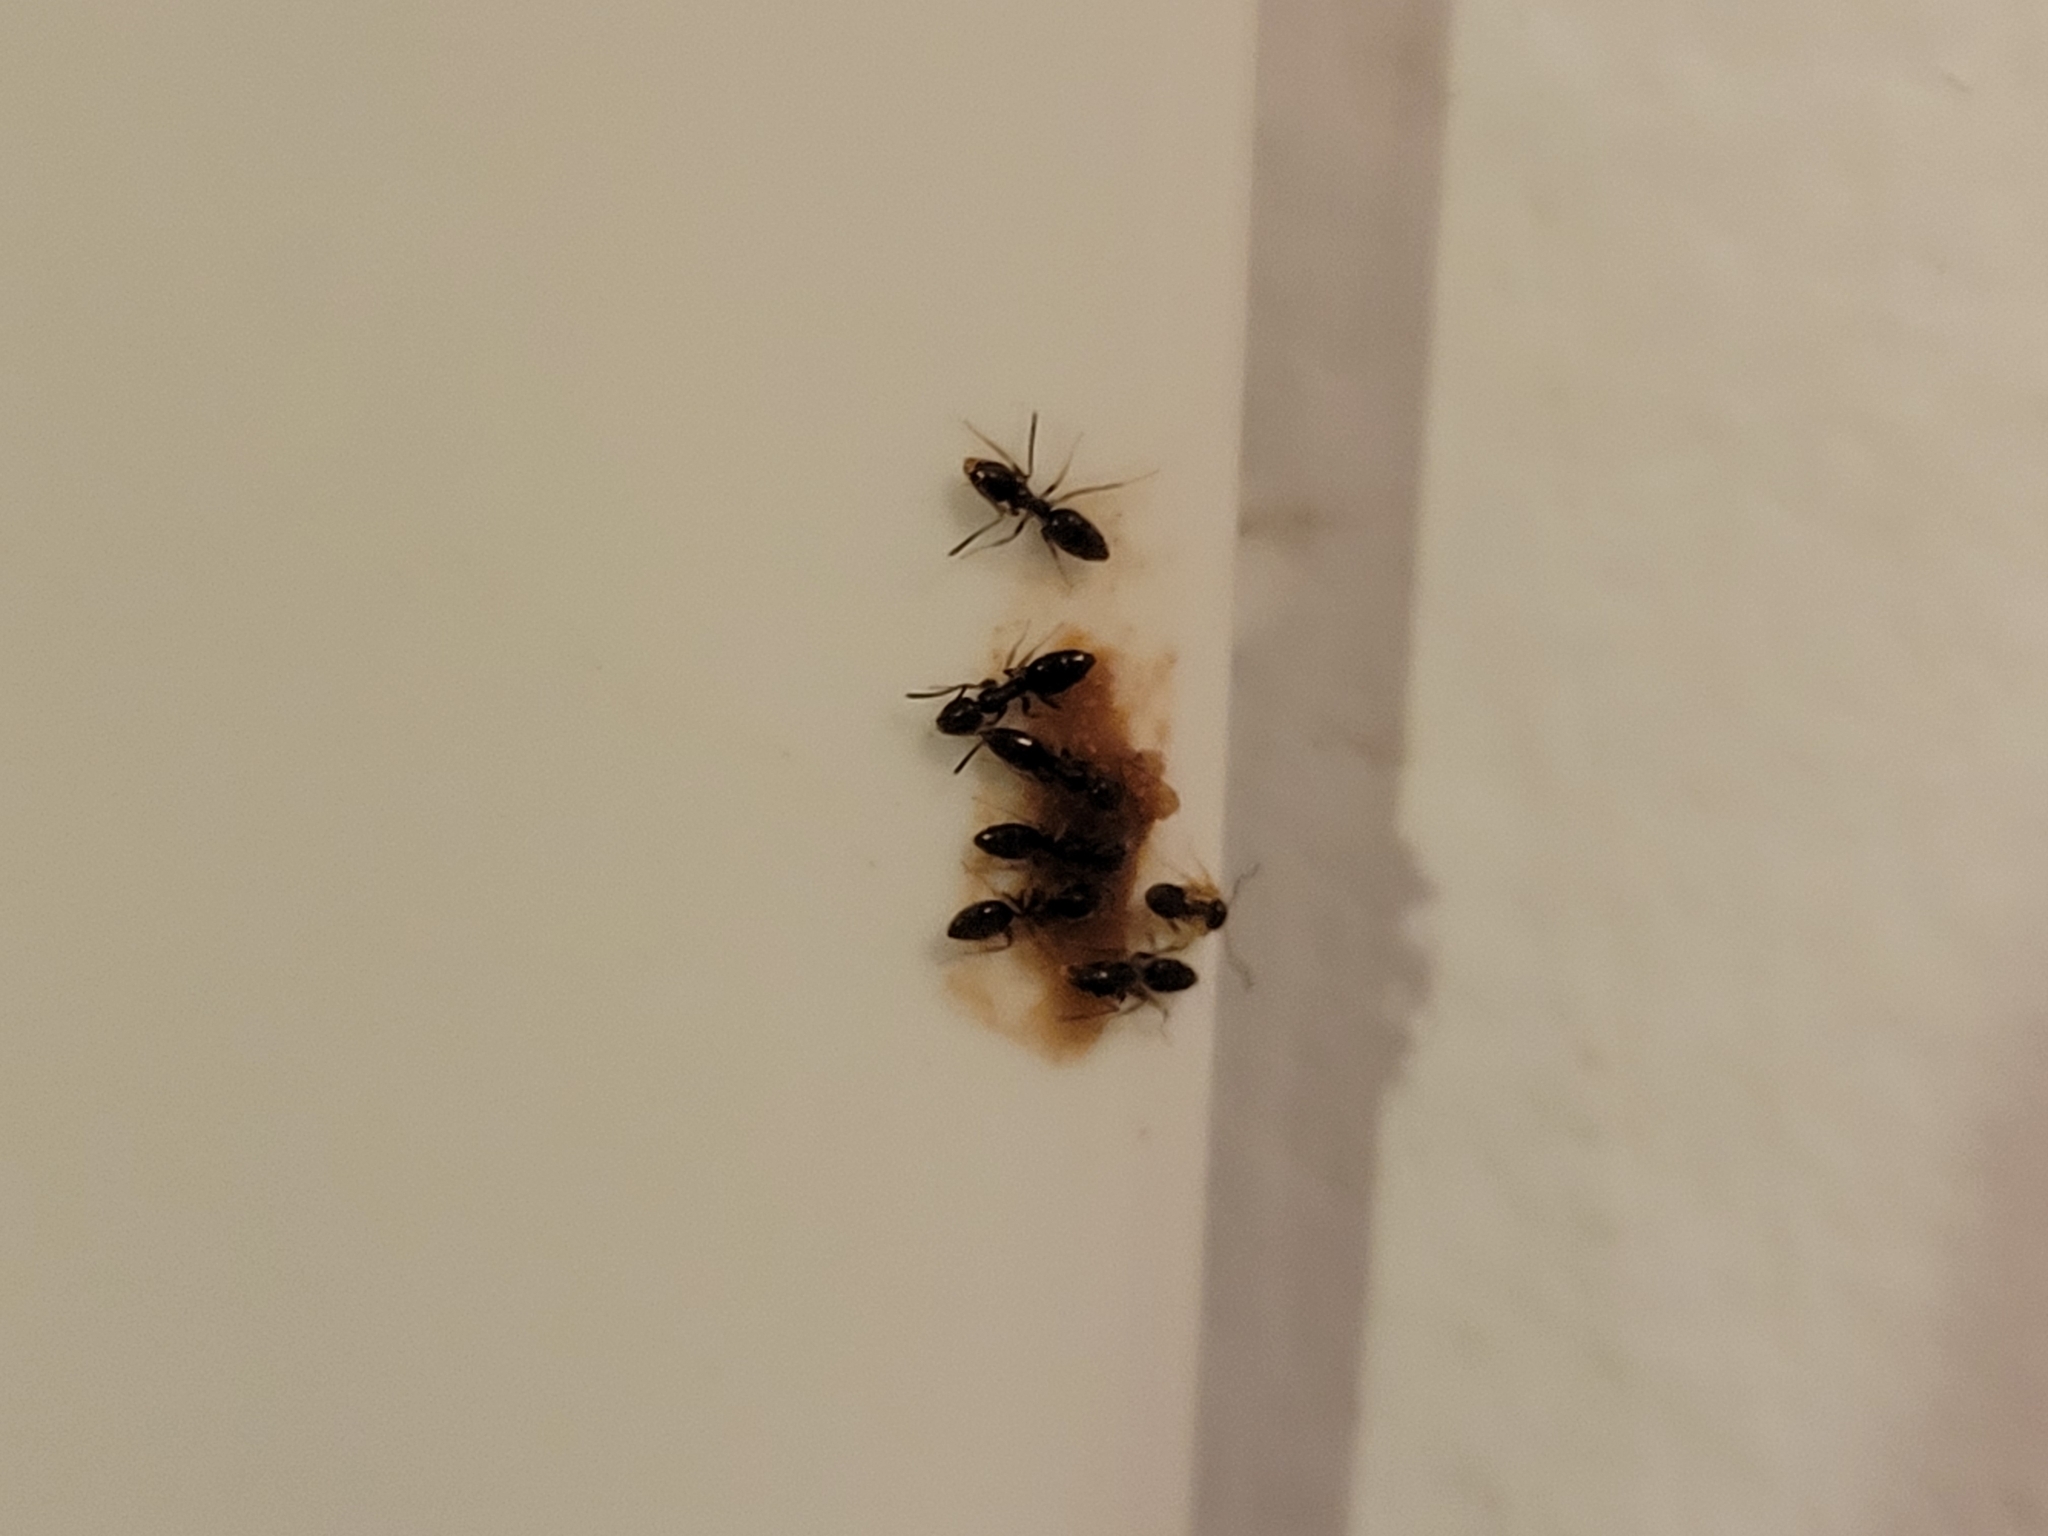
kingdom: Animalia
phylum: Arthropoda
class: Insecta
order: Hymenoptera
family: Formicidae
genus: Tapinoma
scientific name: Tapinoma sessile
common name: Odorous house ant
